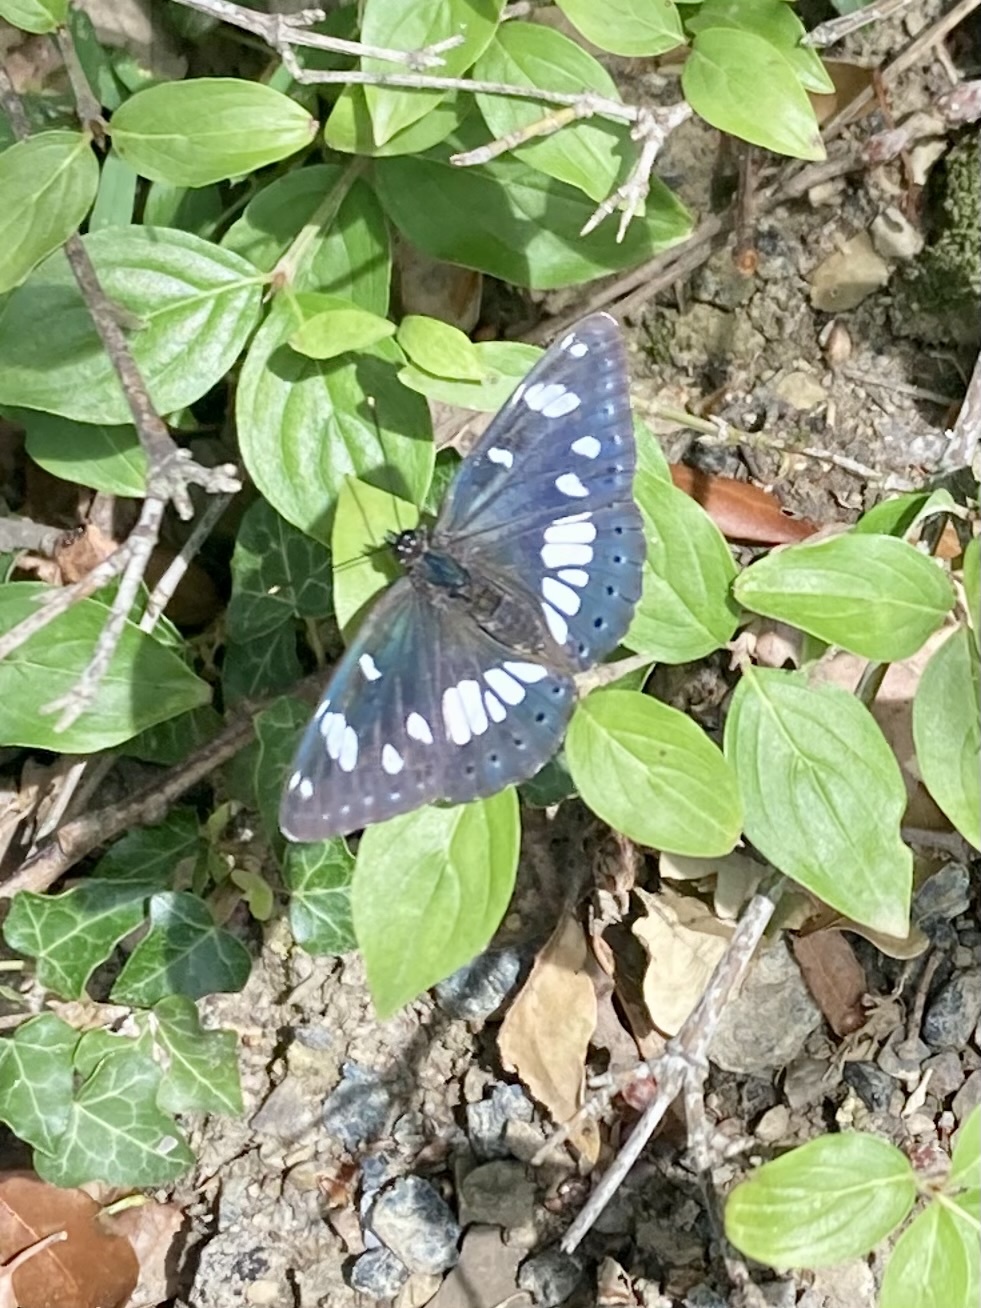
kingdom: Animalia
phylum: Arthropoda
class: Insecta
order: Lepidoptera
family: Nymphalidae
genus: Limenitis
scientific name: Limenitis reducta
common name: Southern white admiral
